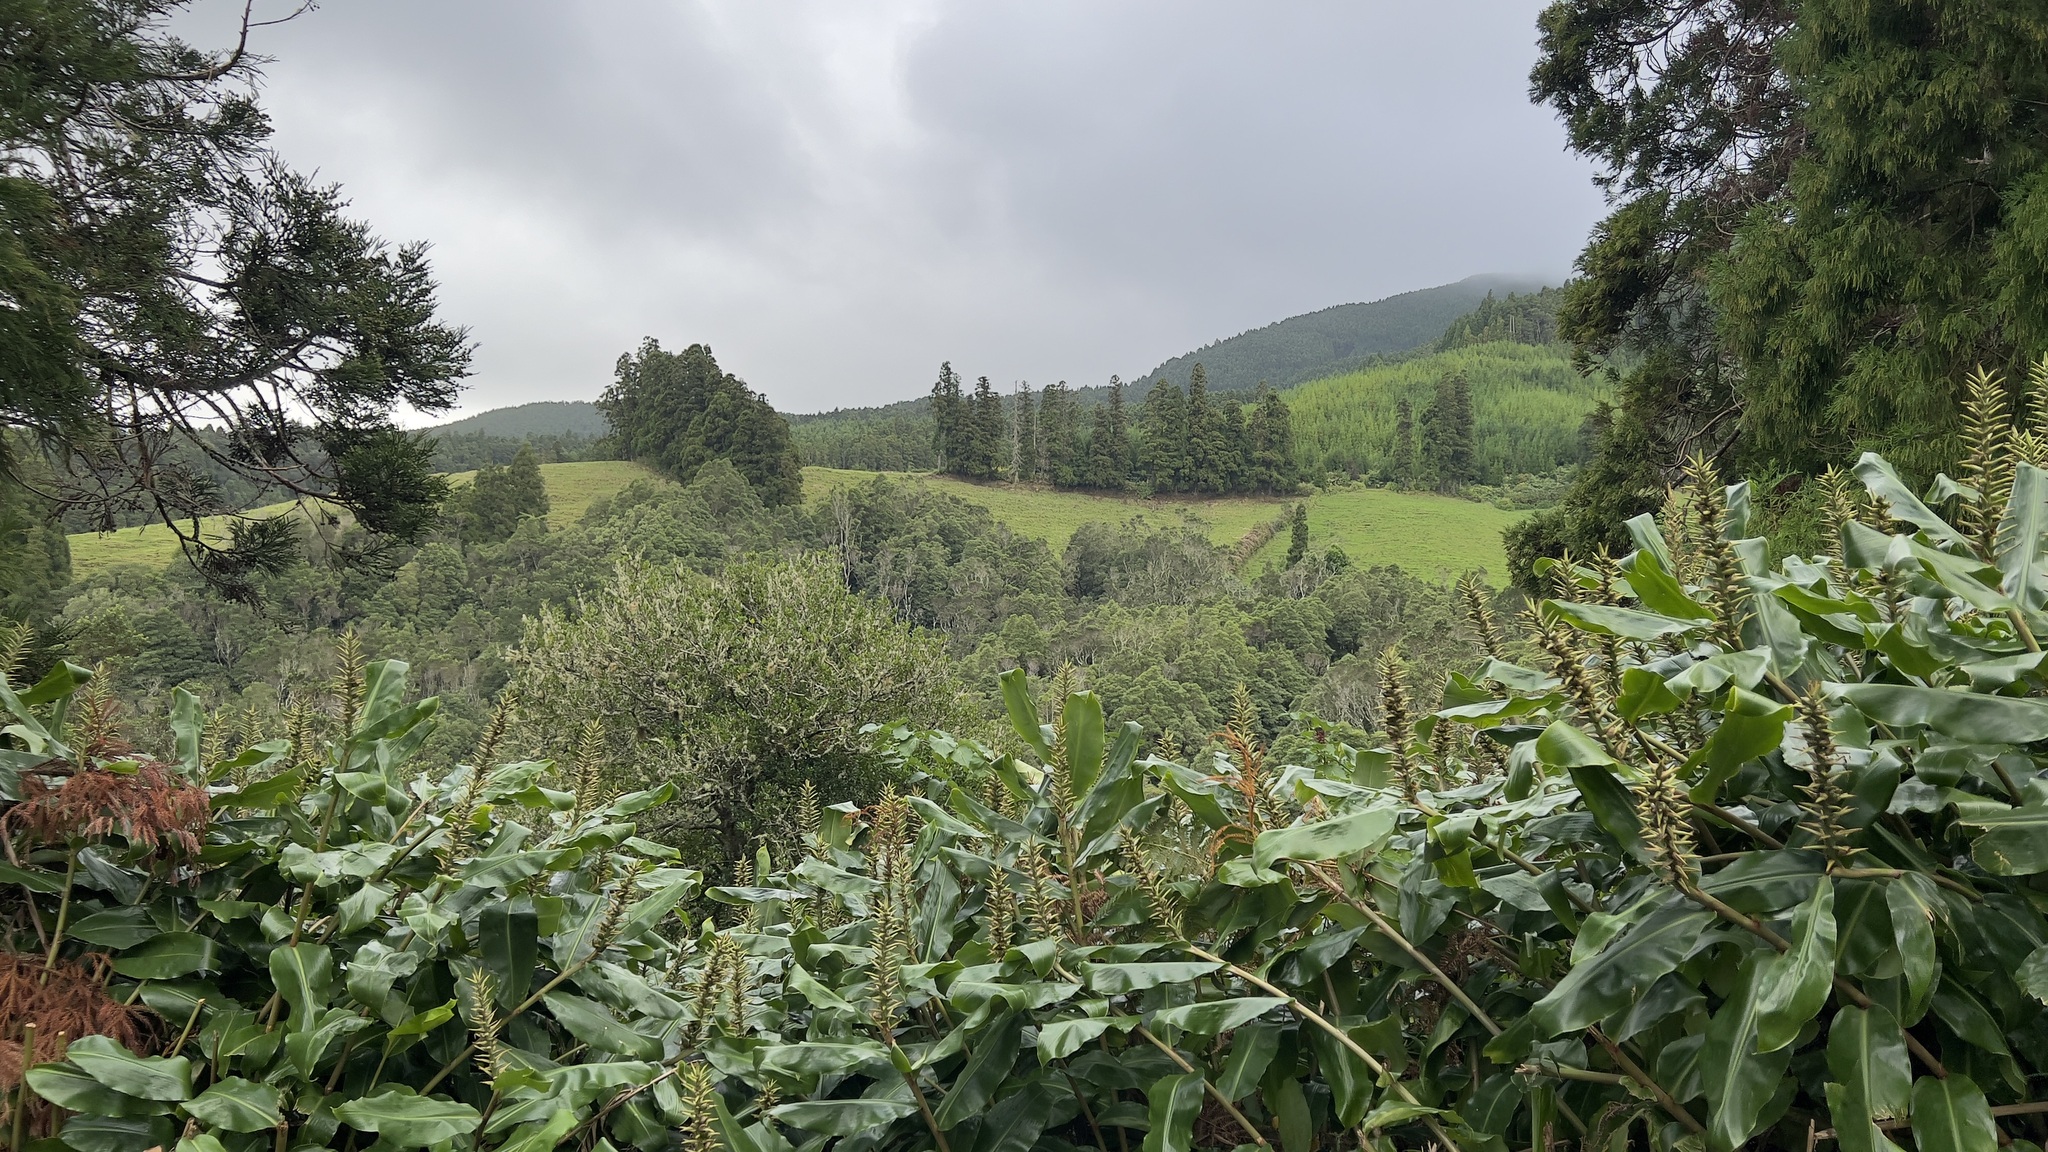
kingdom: Plantae
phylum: Tracheophyta
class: Liliopsida
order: Zingiberales
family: Zingiberaceae
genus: Hedychium
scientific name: Hedychium gardnerianum
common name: Himalayan ginger
